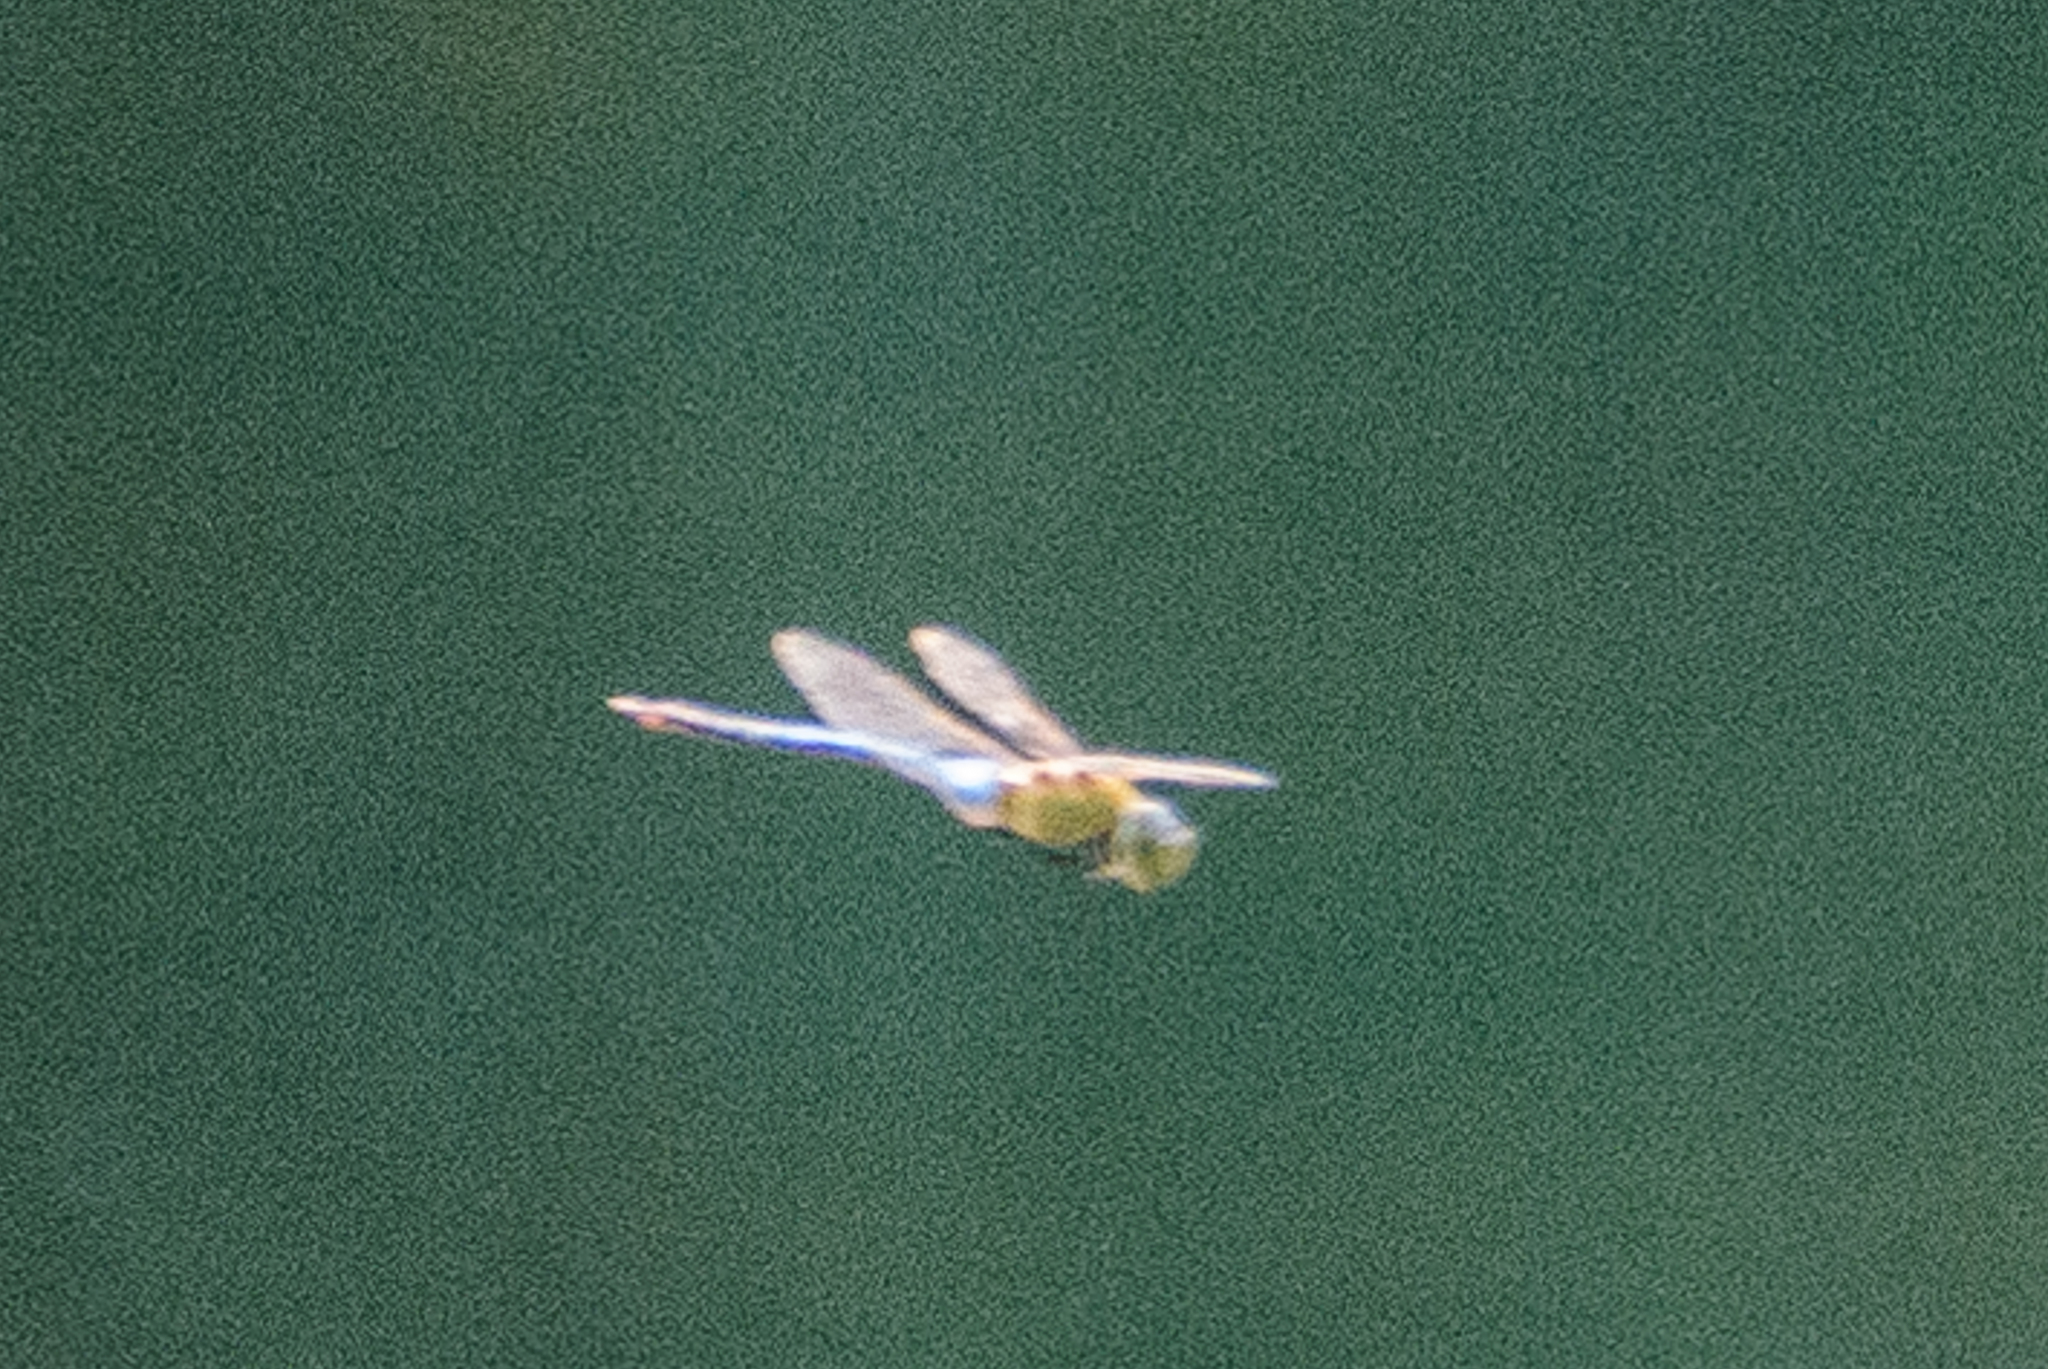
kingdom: Animalia
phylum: Arthropoda
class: Insecta
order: Odonata
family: Aeshnidae
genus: Anax
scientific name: Anax junius
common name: Common green darner
